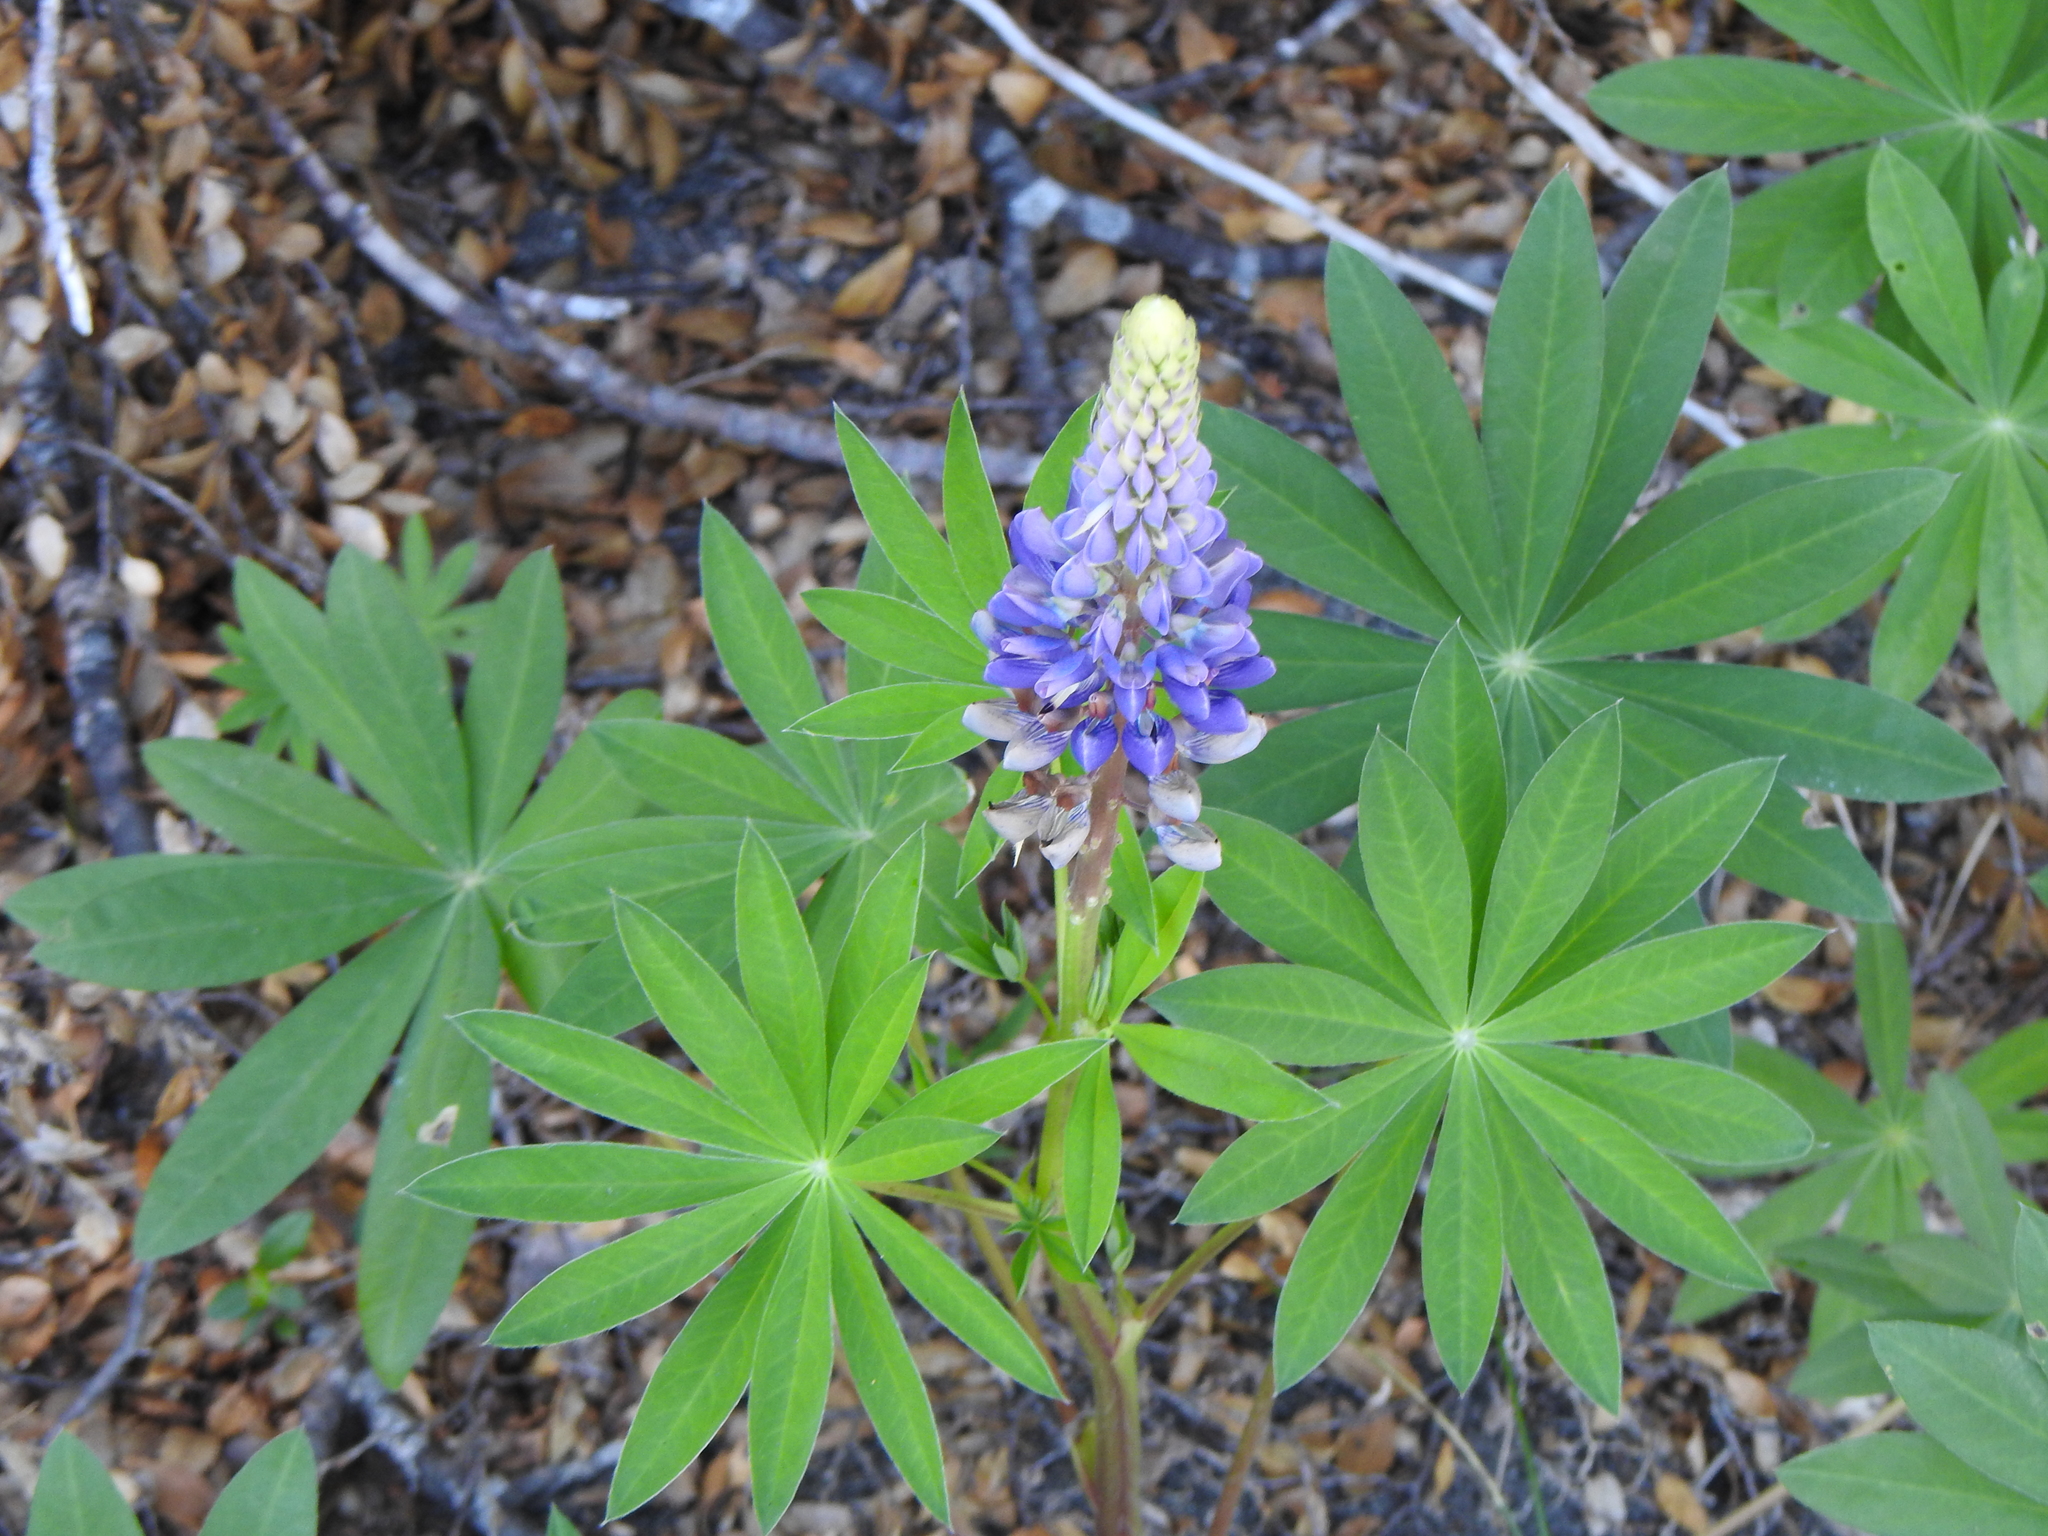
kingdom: Plantae
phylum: Tracheophyta
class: Magnoliopsida
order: Fabales
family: Fabaceae
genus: Lupinus
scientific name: Lupinus polyphyllus
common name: Garden lupin
